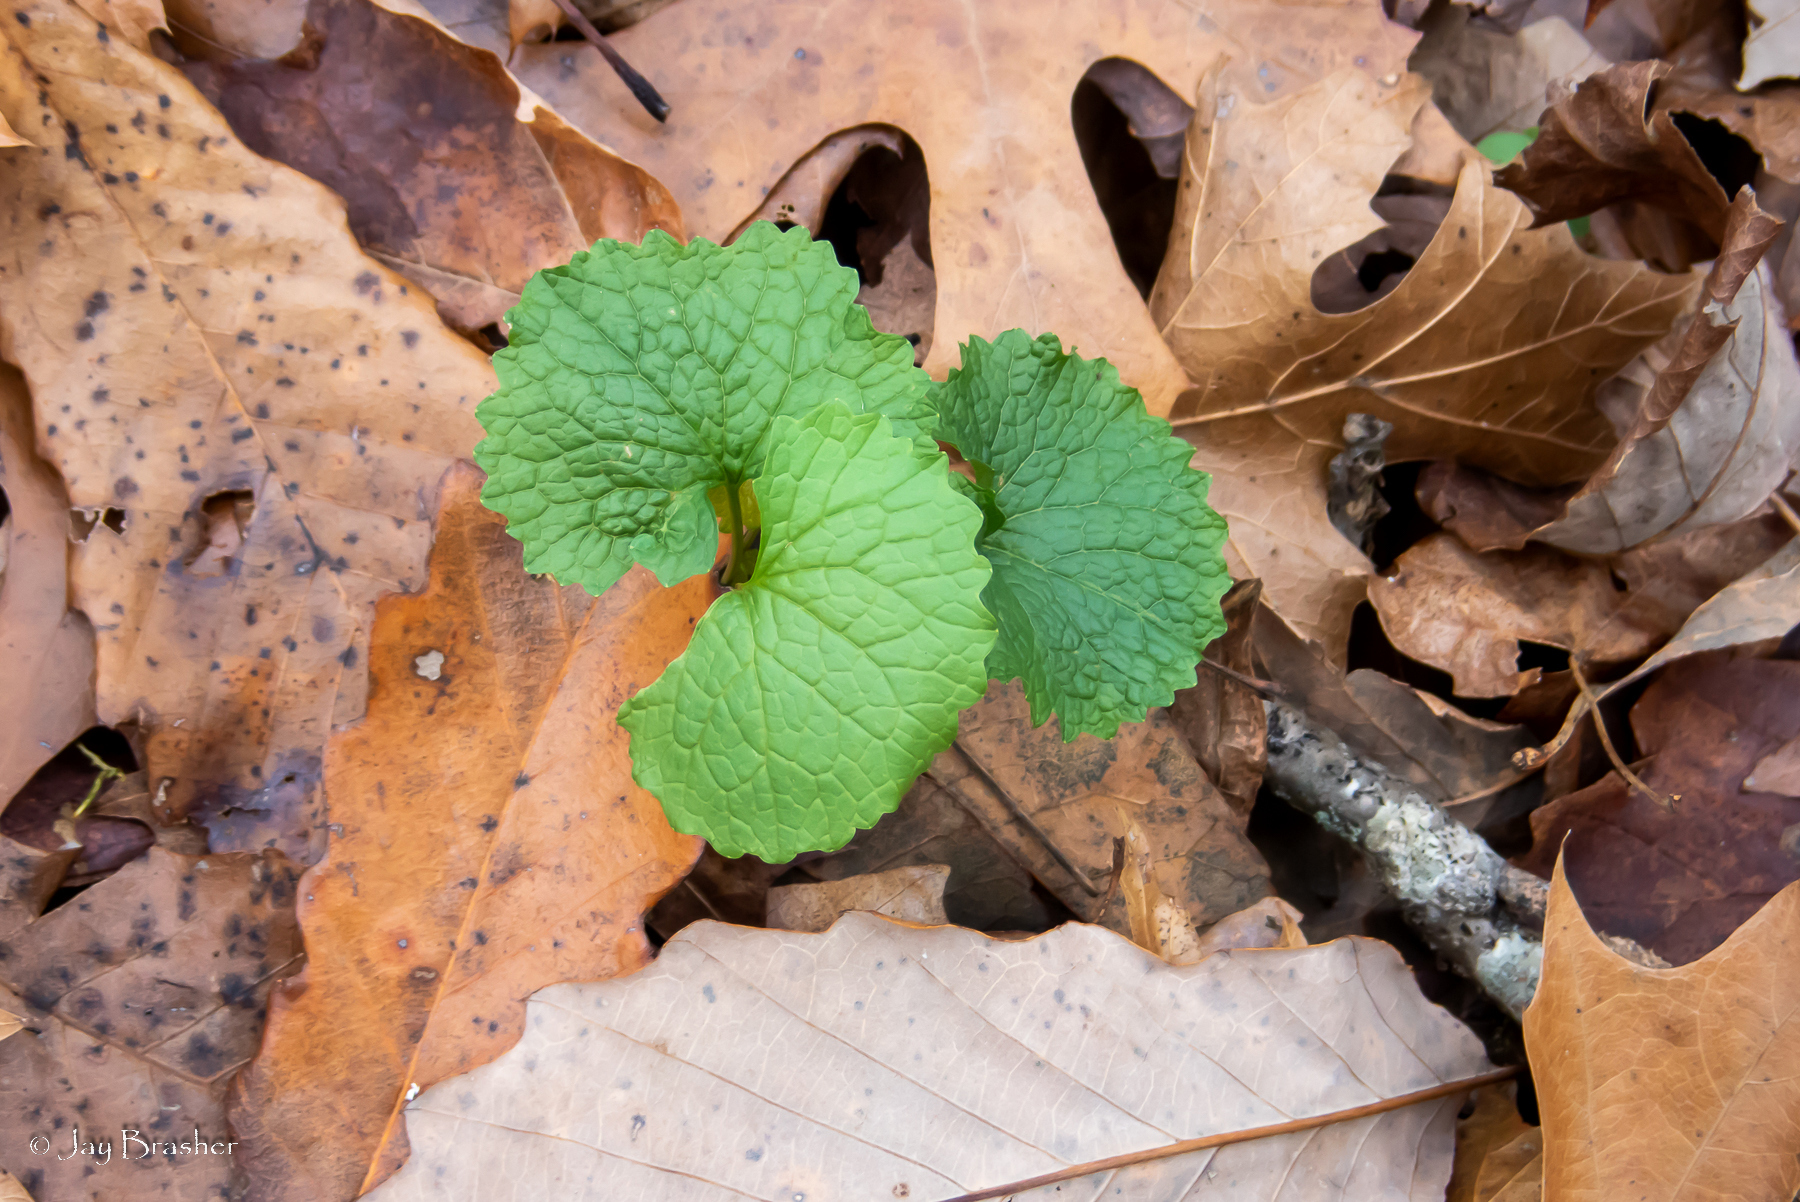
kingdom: Plantae
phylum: Tracheophyta
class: Magnoliopsida
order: Brassicales
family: Brassicaceae
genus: Alliaria
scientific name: Alliaria petiolata
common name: Garlic mustard
